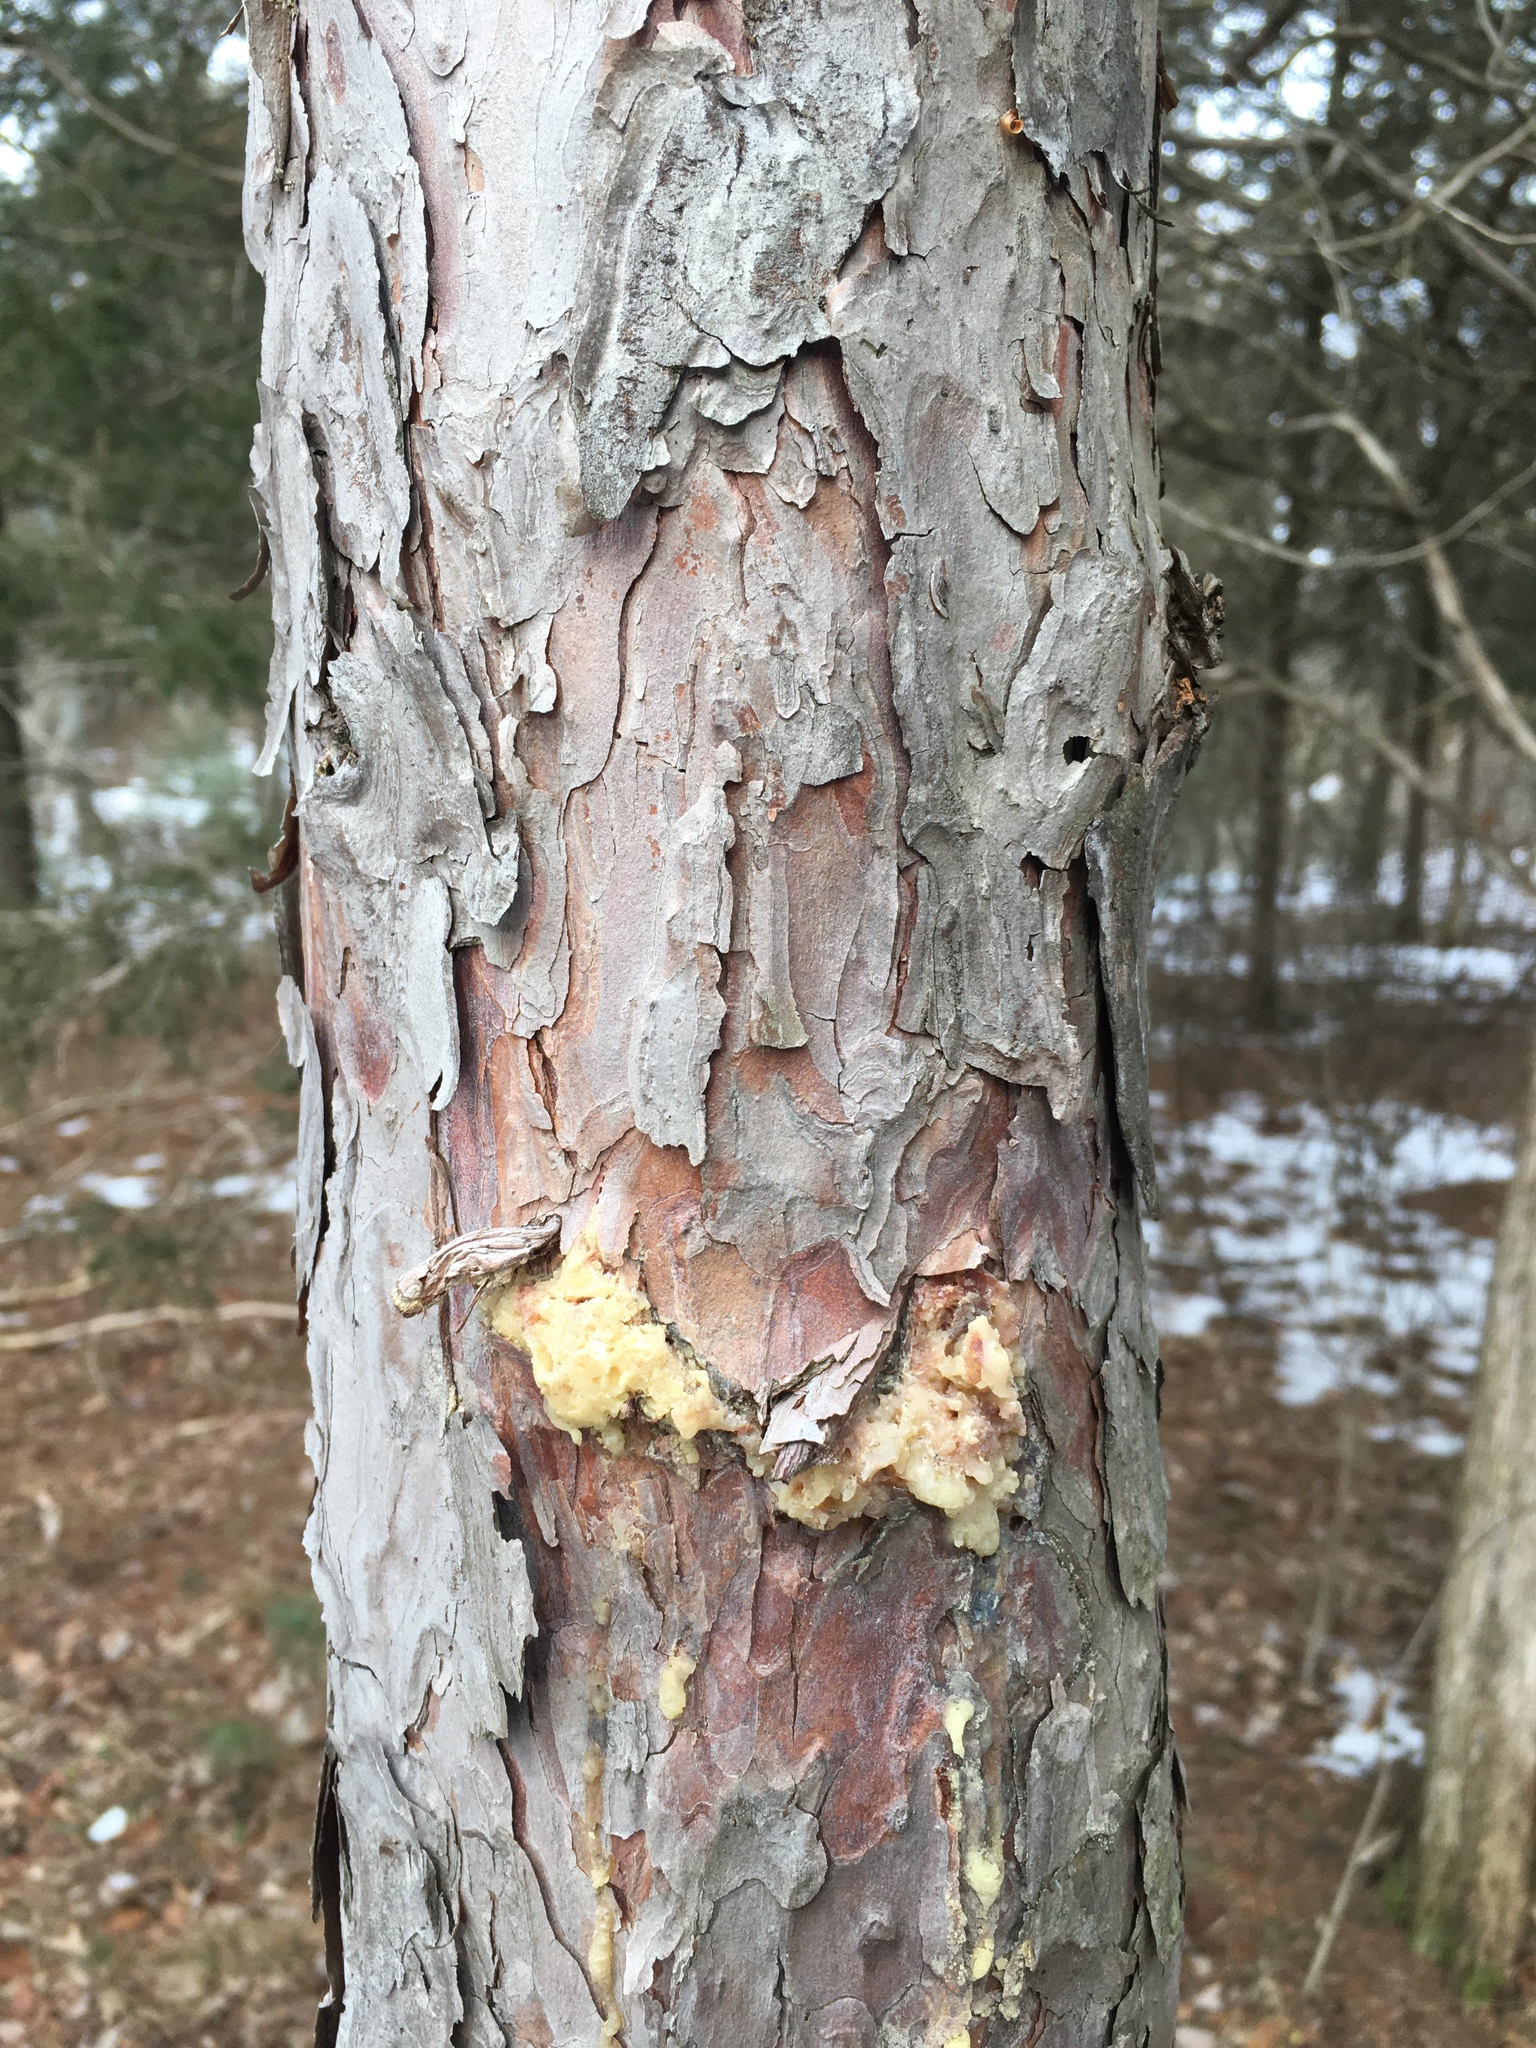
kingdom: Plantae
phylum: Tracheophyta
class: Pinopsida
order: Pinales
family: Pinaceae
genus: Pinus
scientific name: Pinus resinosa
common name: Norway pine
